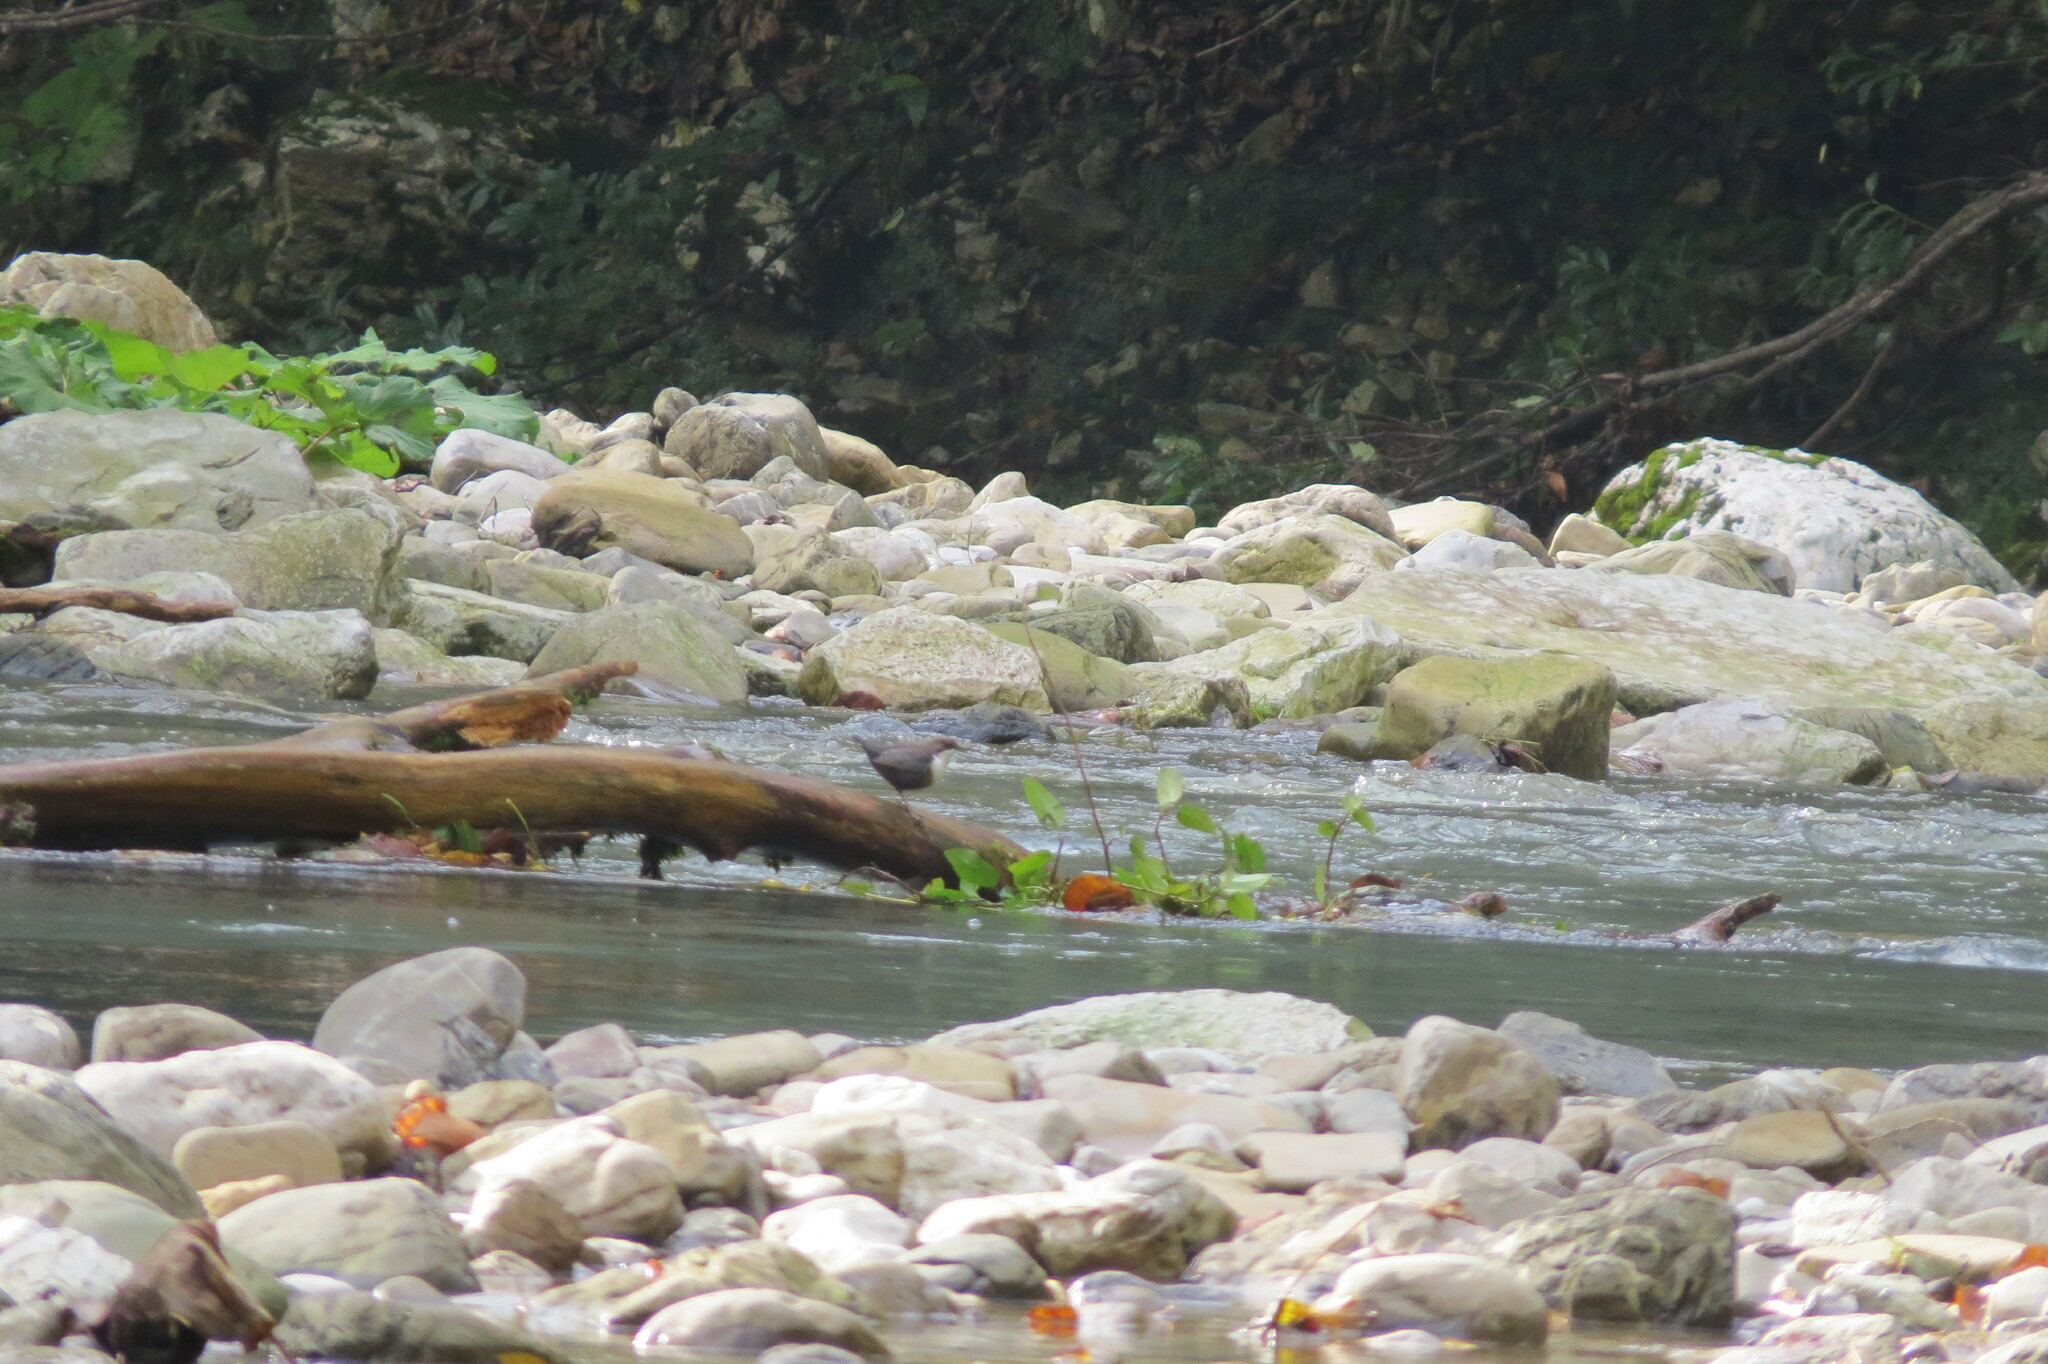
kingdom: Animalia
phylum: Chordata
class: Aves
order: Passeriformes
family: Cinclidae
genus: Cinclus
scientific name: Cinclus cinclus
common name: White-throated dipper
